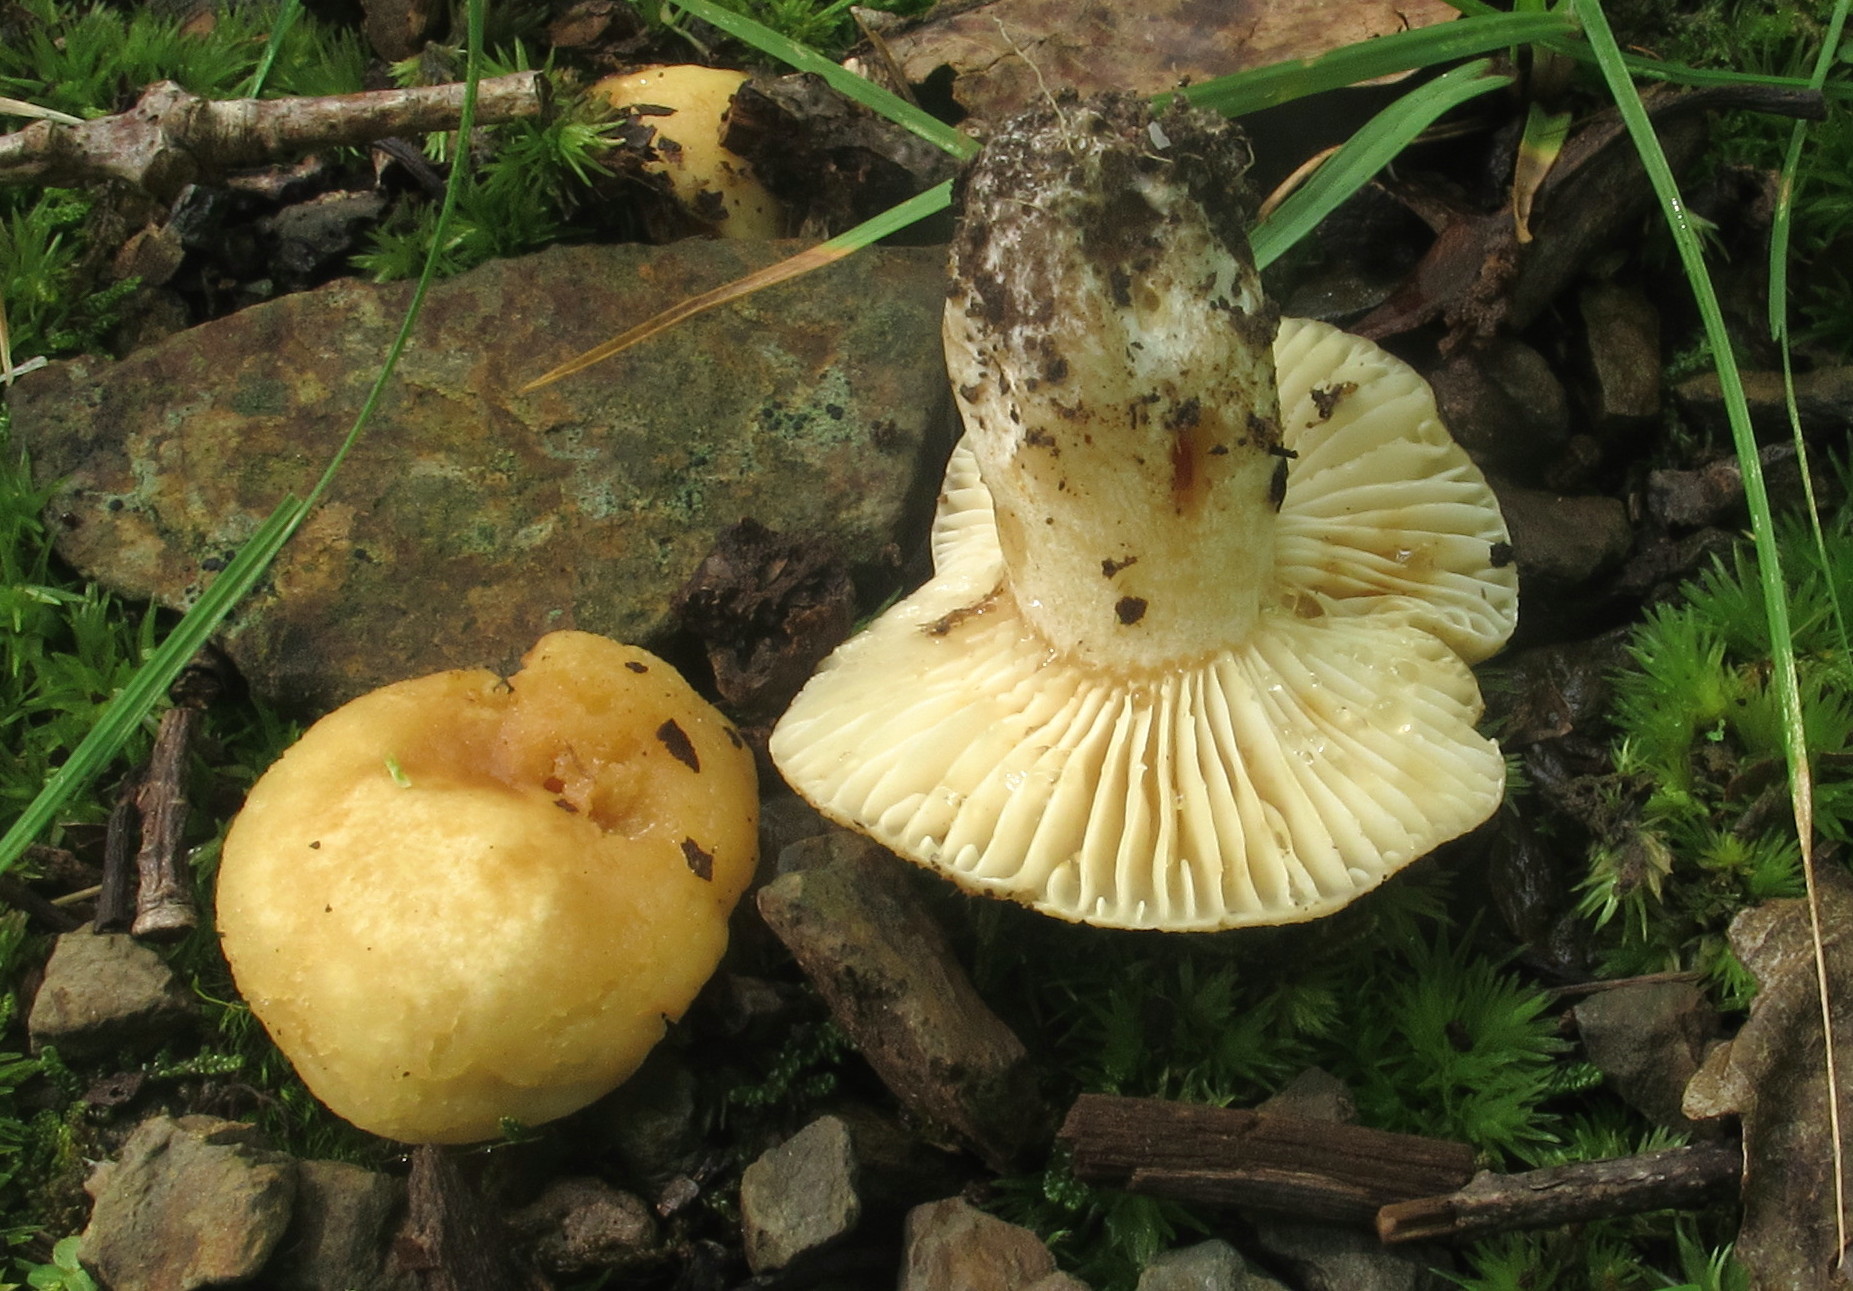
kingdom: Fungi
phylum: Basidiomycota
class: Agaricomycetes
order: Russulales
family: Russulaceae
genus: Russula
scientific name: Russula earlei
